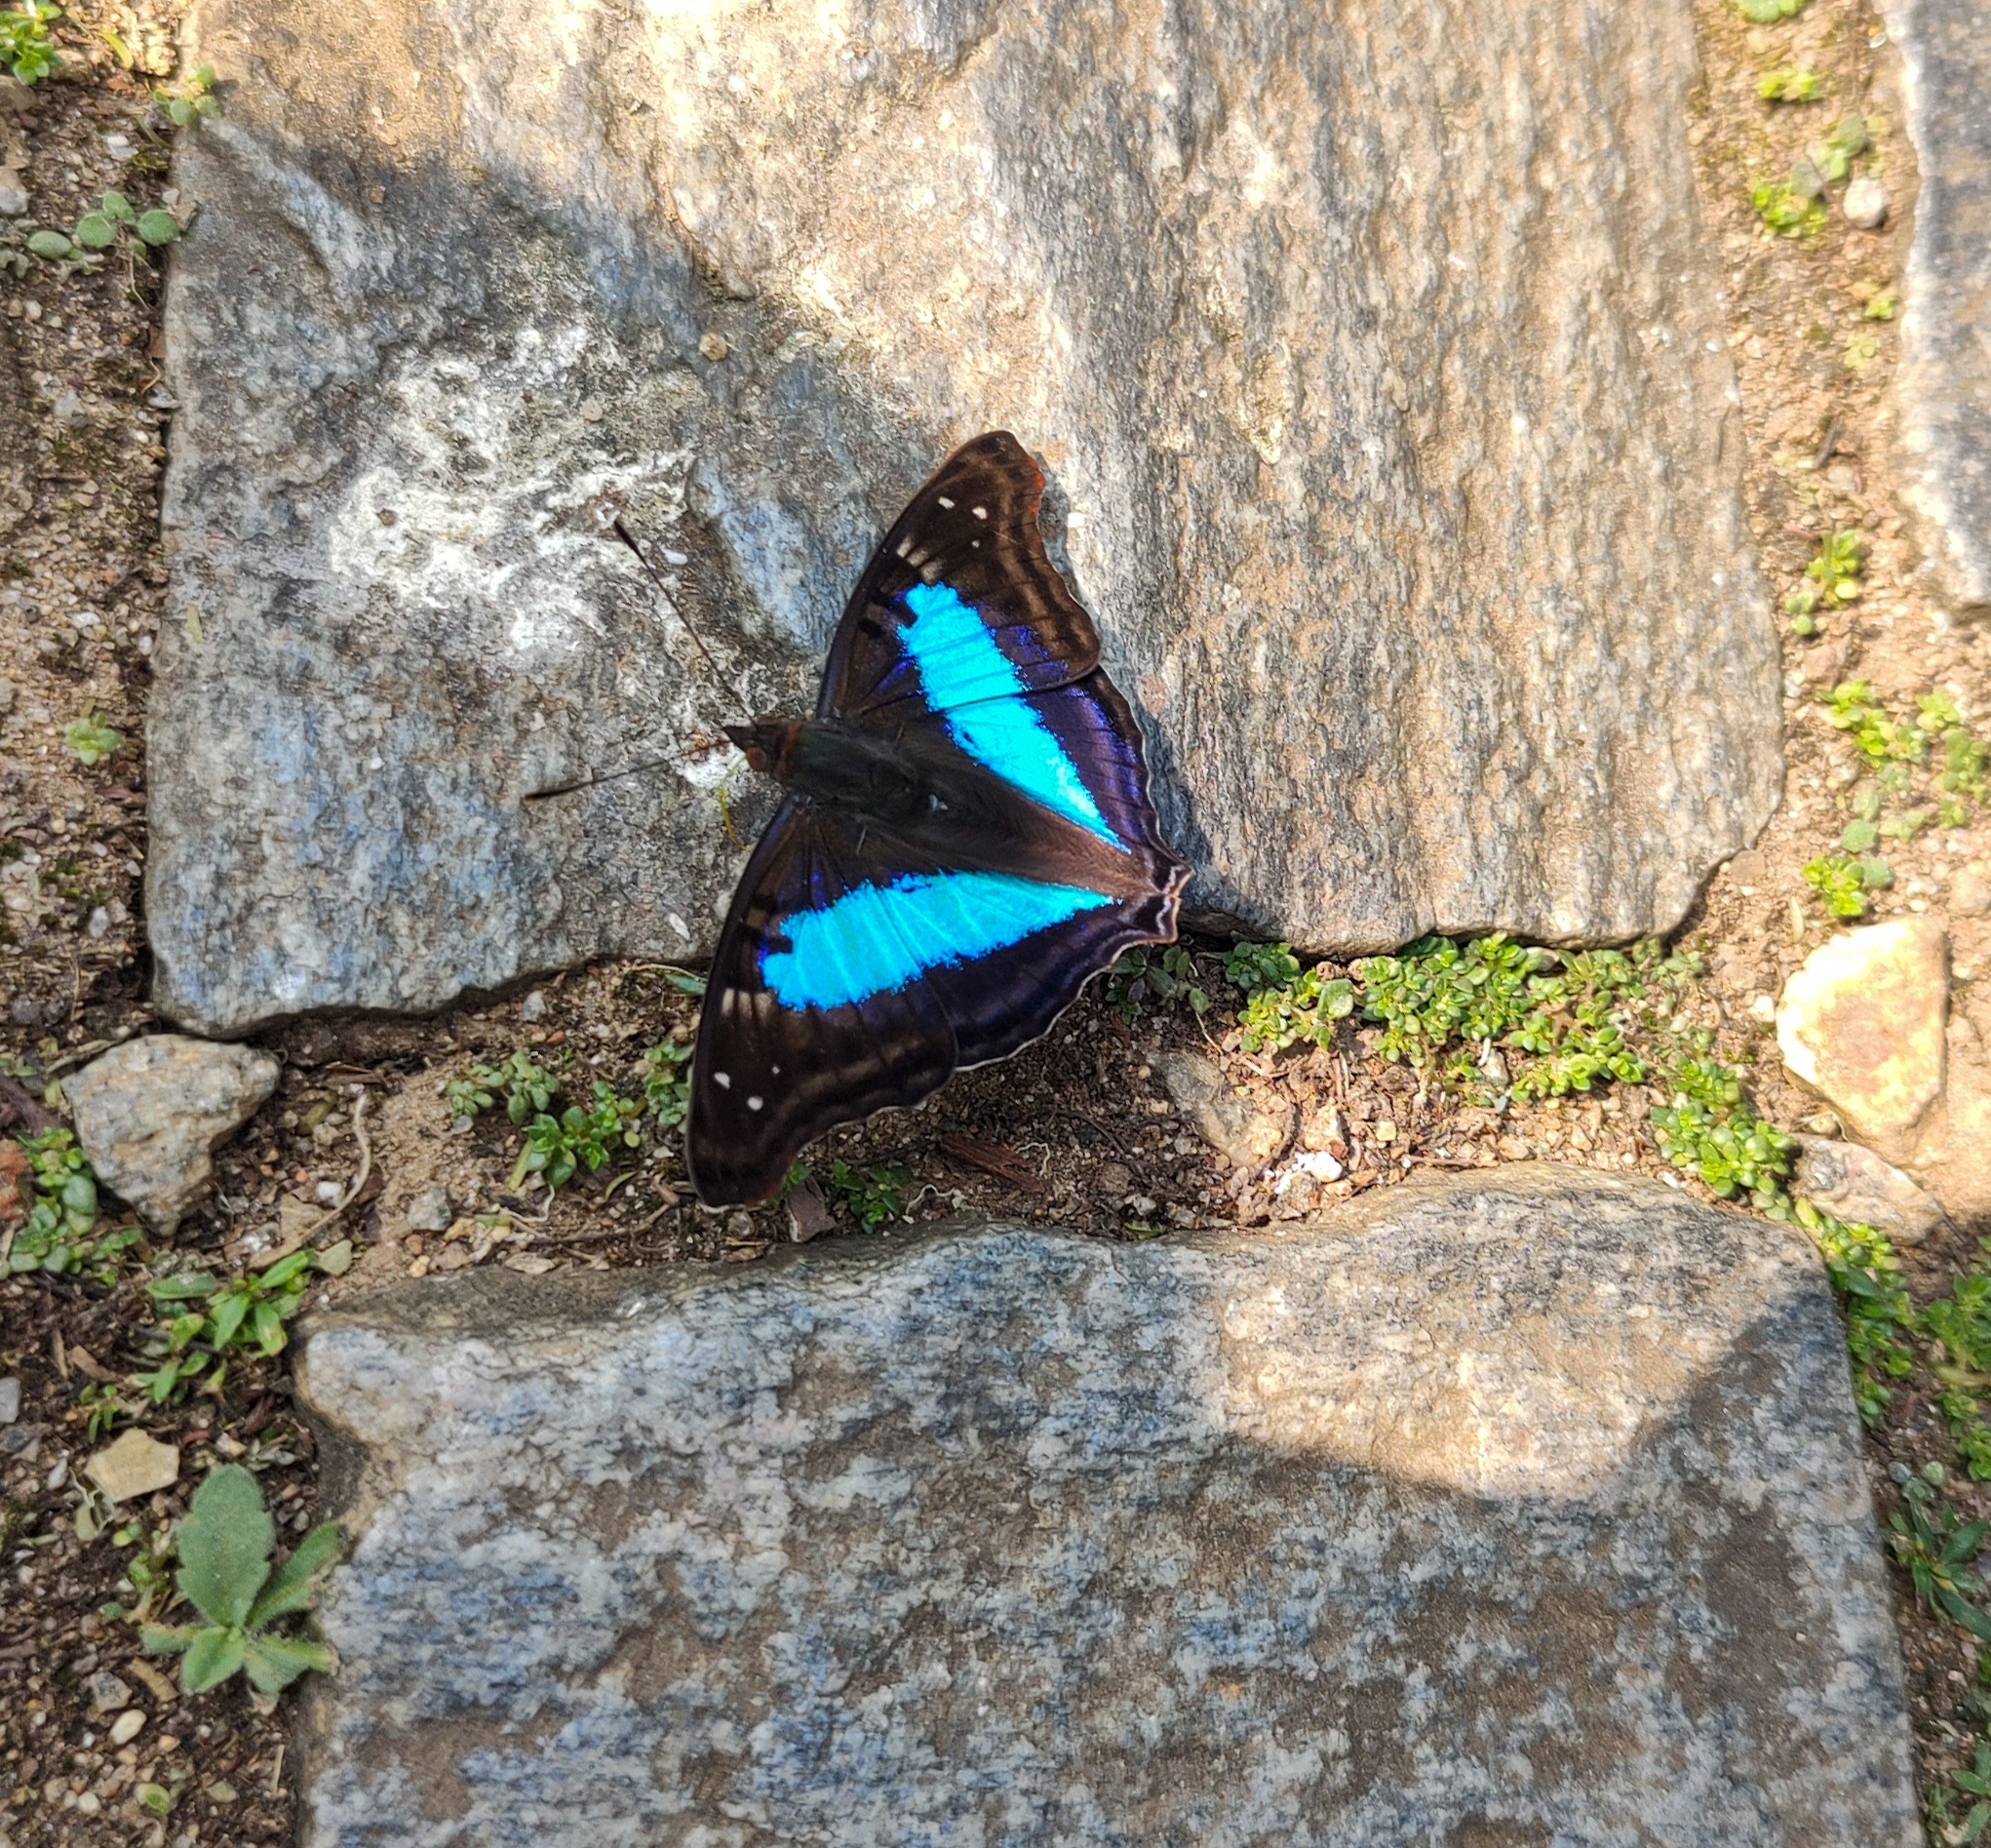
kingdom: Animalia
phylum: Arthropoda
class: Insecta
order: Lepidoptera
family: Nymphalidae
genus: Doxocopa
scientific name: Doxocopa laurentia
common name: Turquoise emperor
